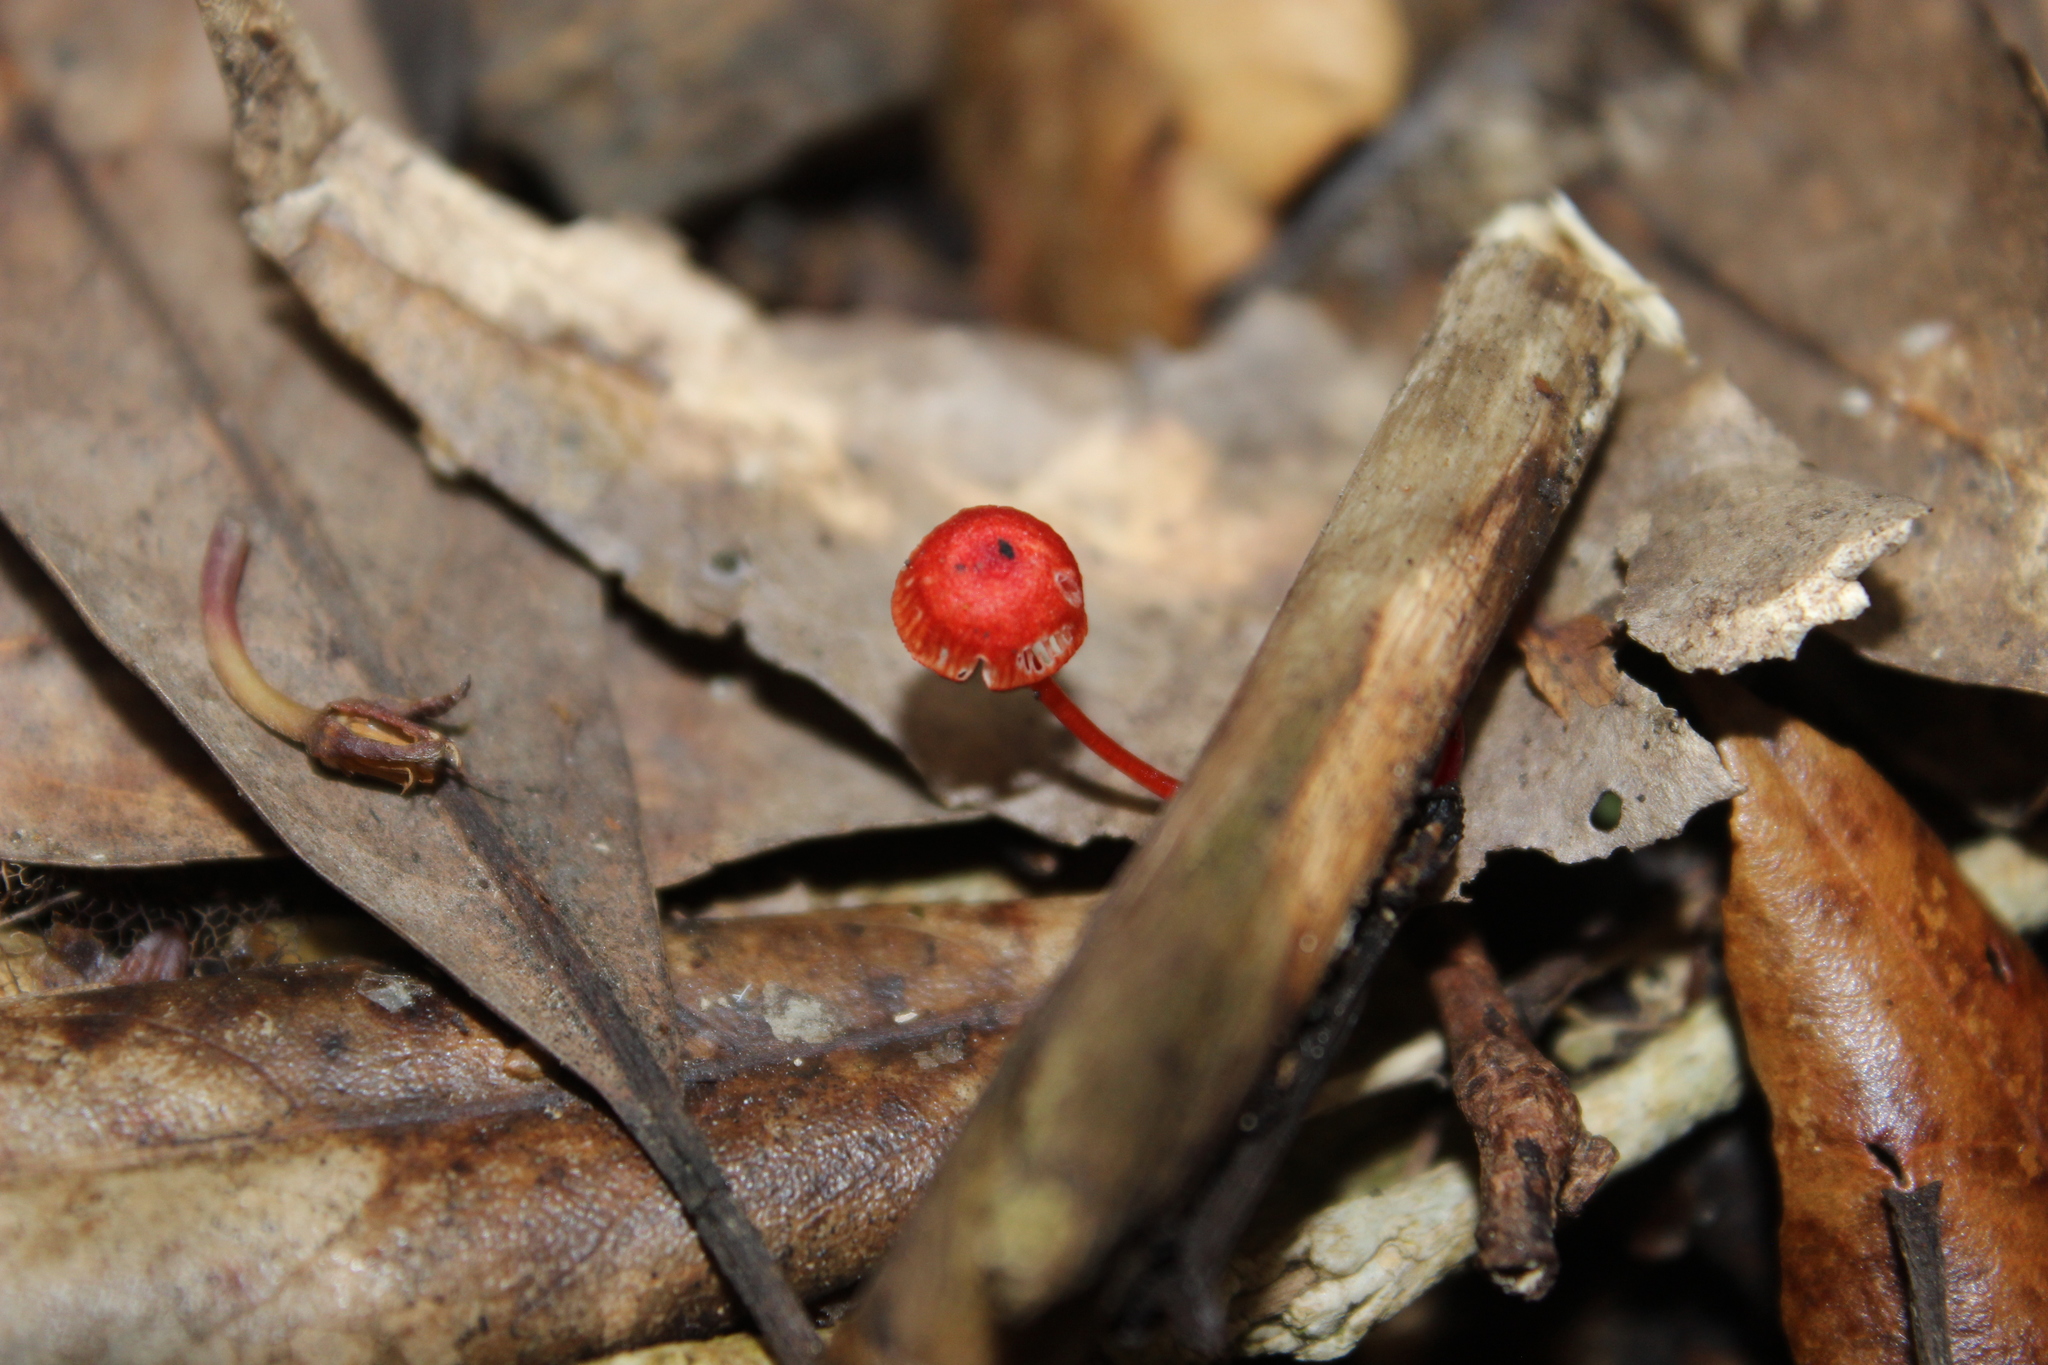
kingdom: Fungi
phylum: Basidiomycota
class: Agaricomycetes
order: Agaricales
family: Mycenaceae
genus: Cruentomycena
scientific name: Cruentomycena viscidocruenta
